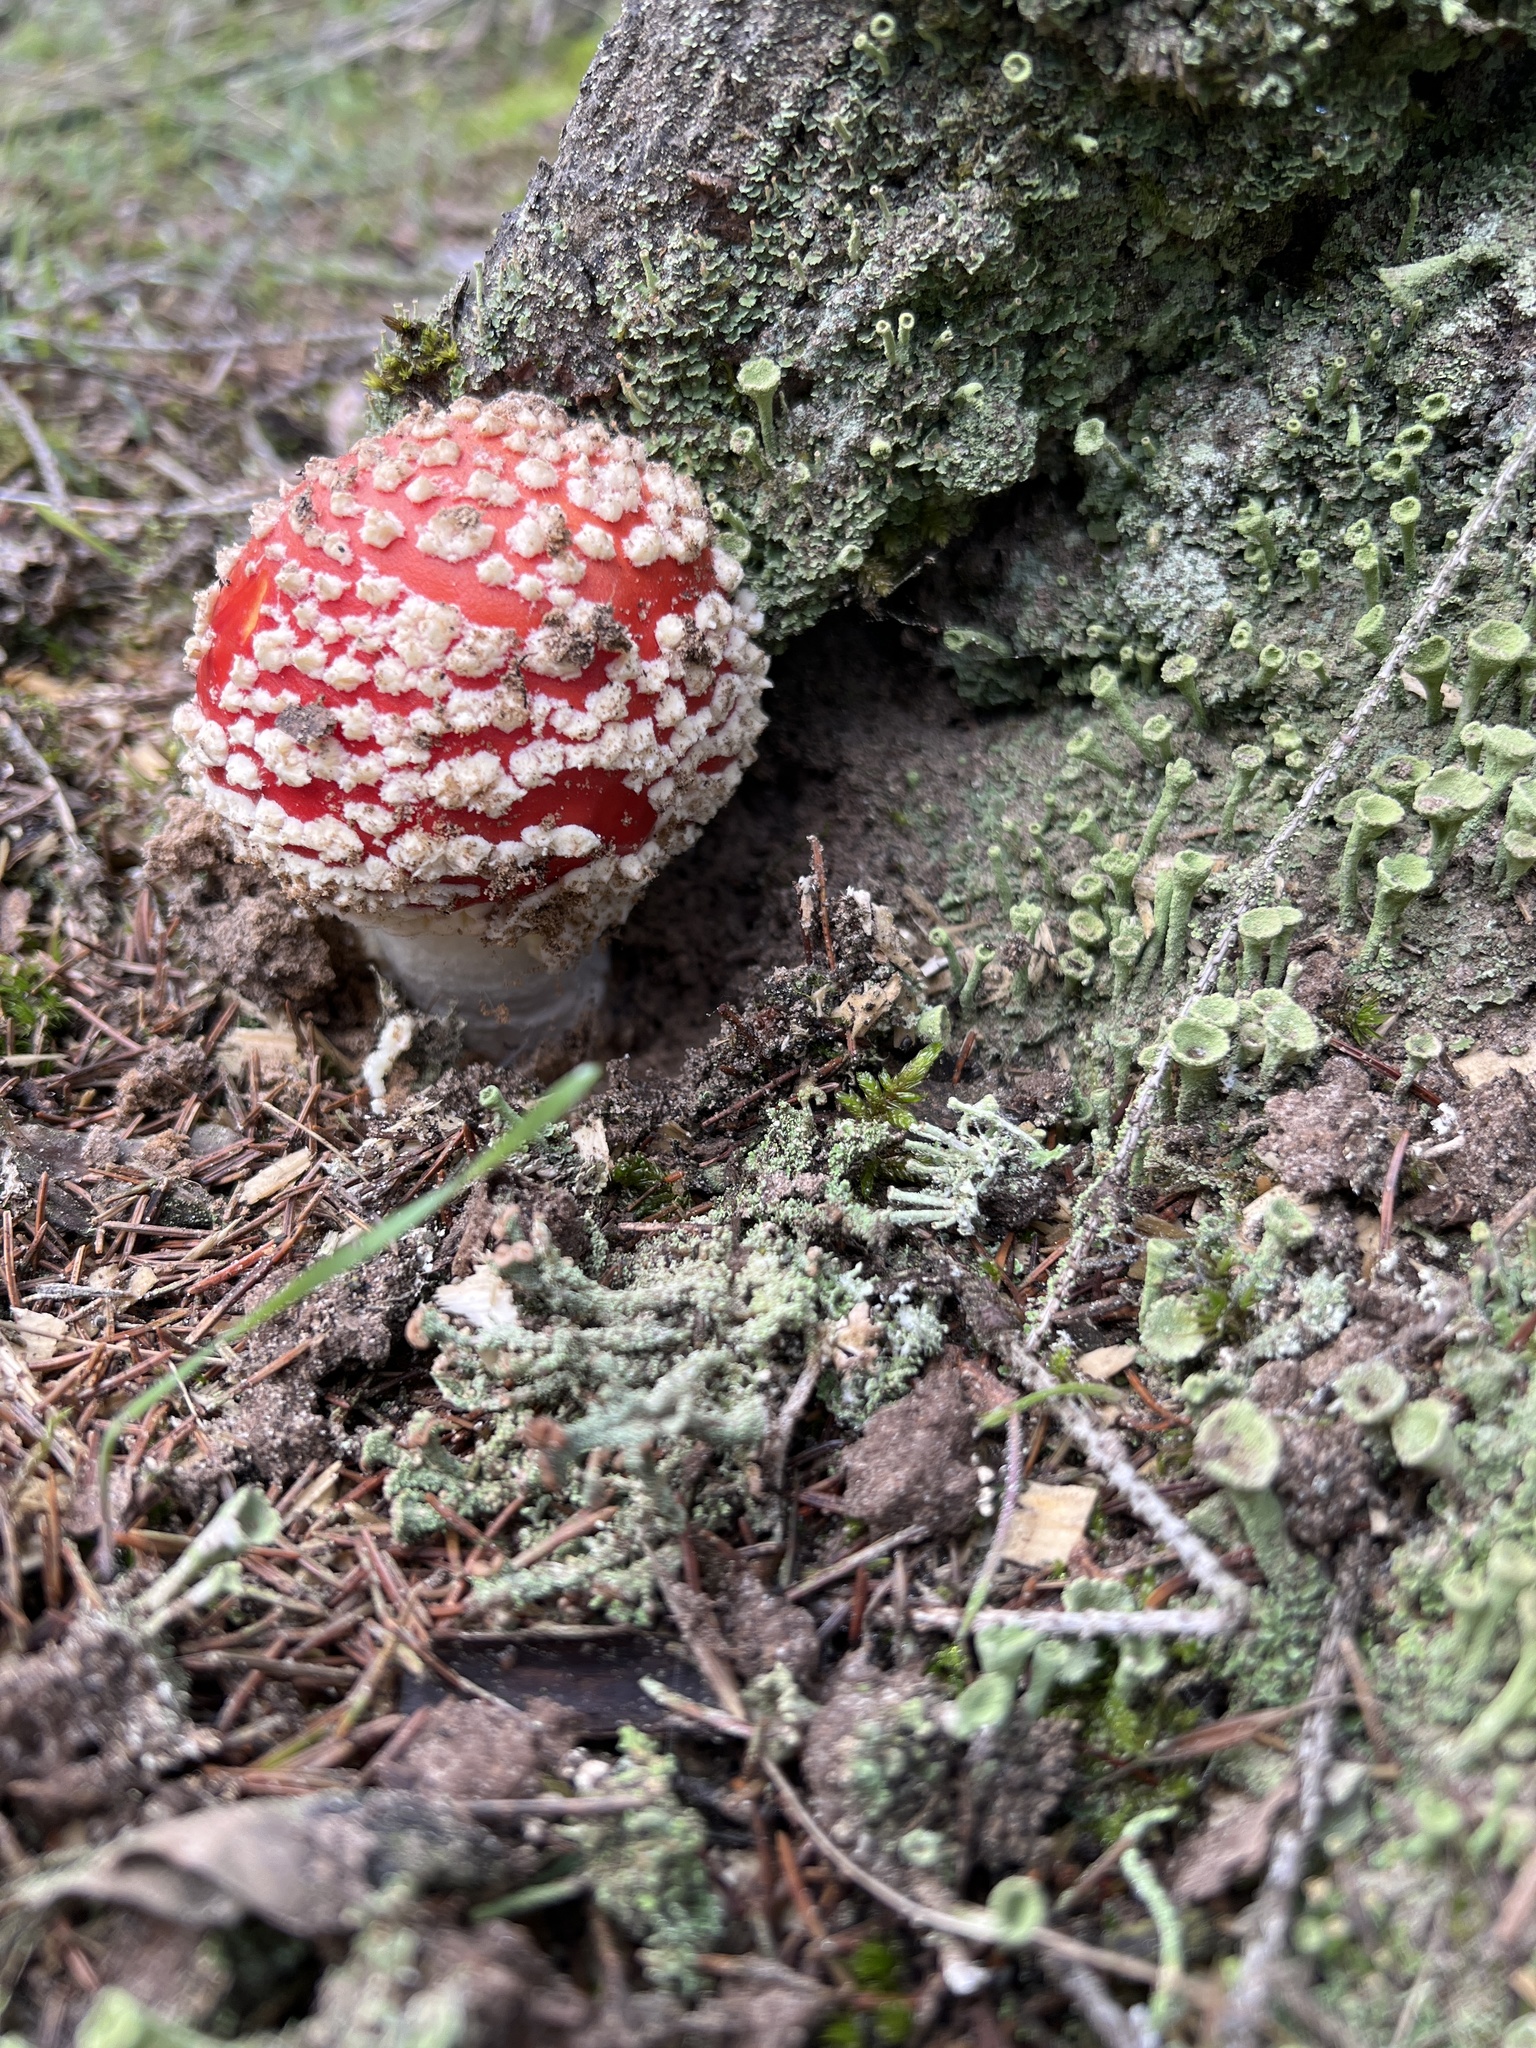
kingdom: Fungi
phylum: Basidiomycota
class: Agaricomycetes
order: Agaricales
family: Amanitaceae
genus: Amanita
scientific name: Amanita muscaria
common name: Fly agaric
